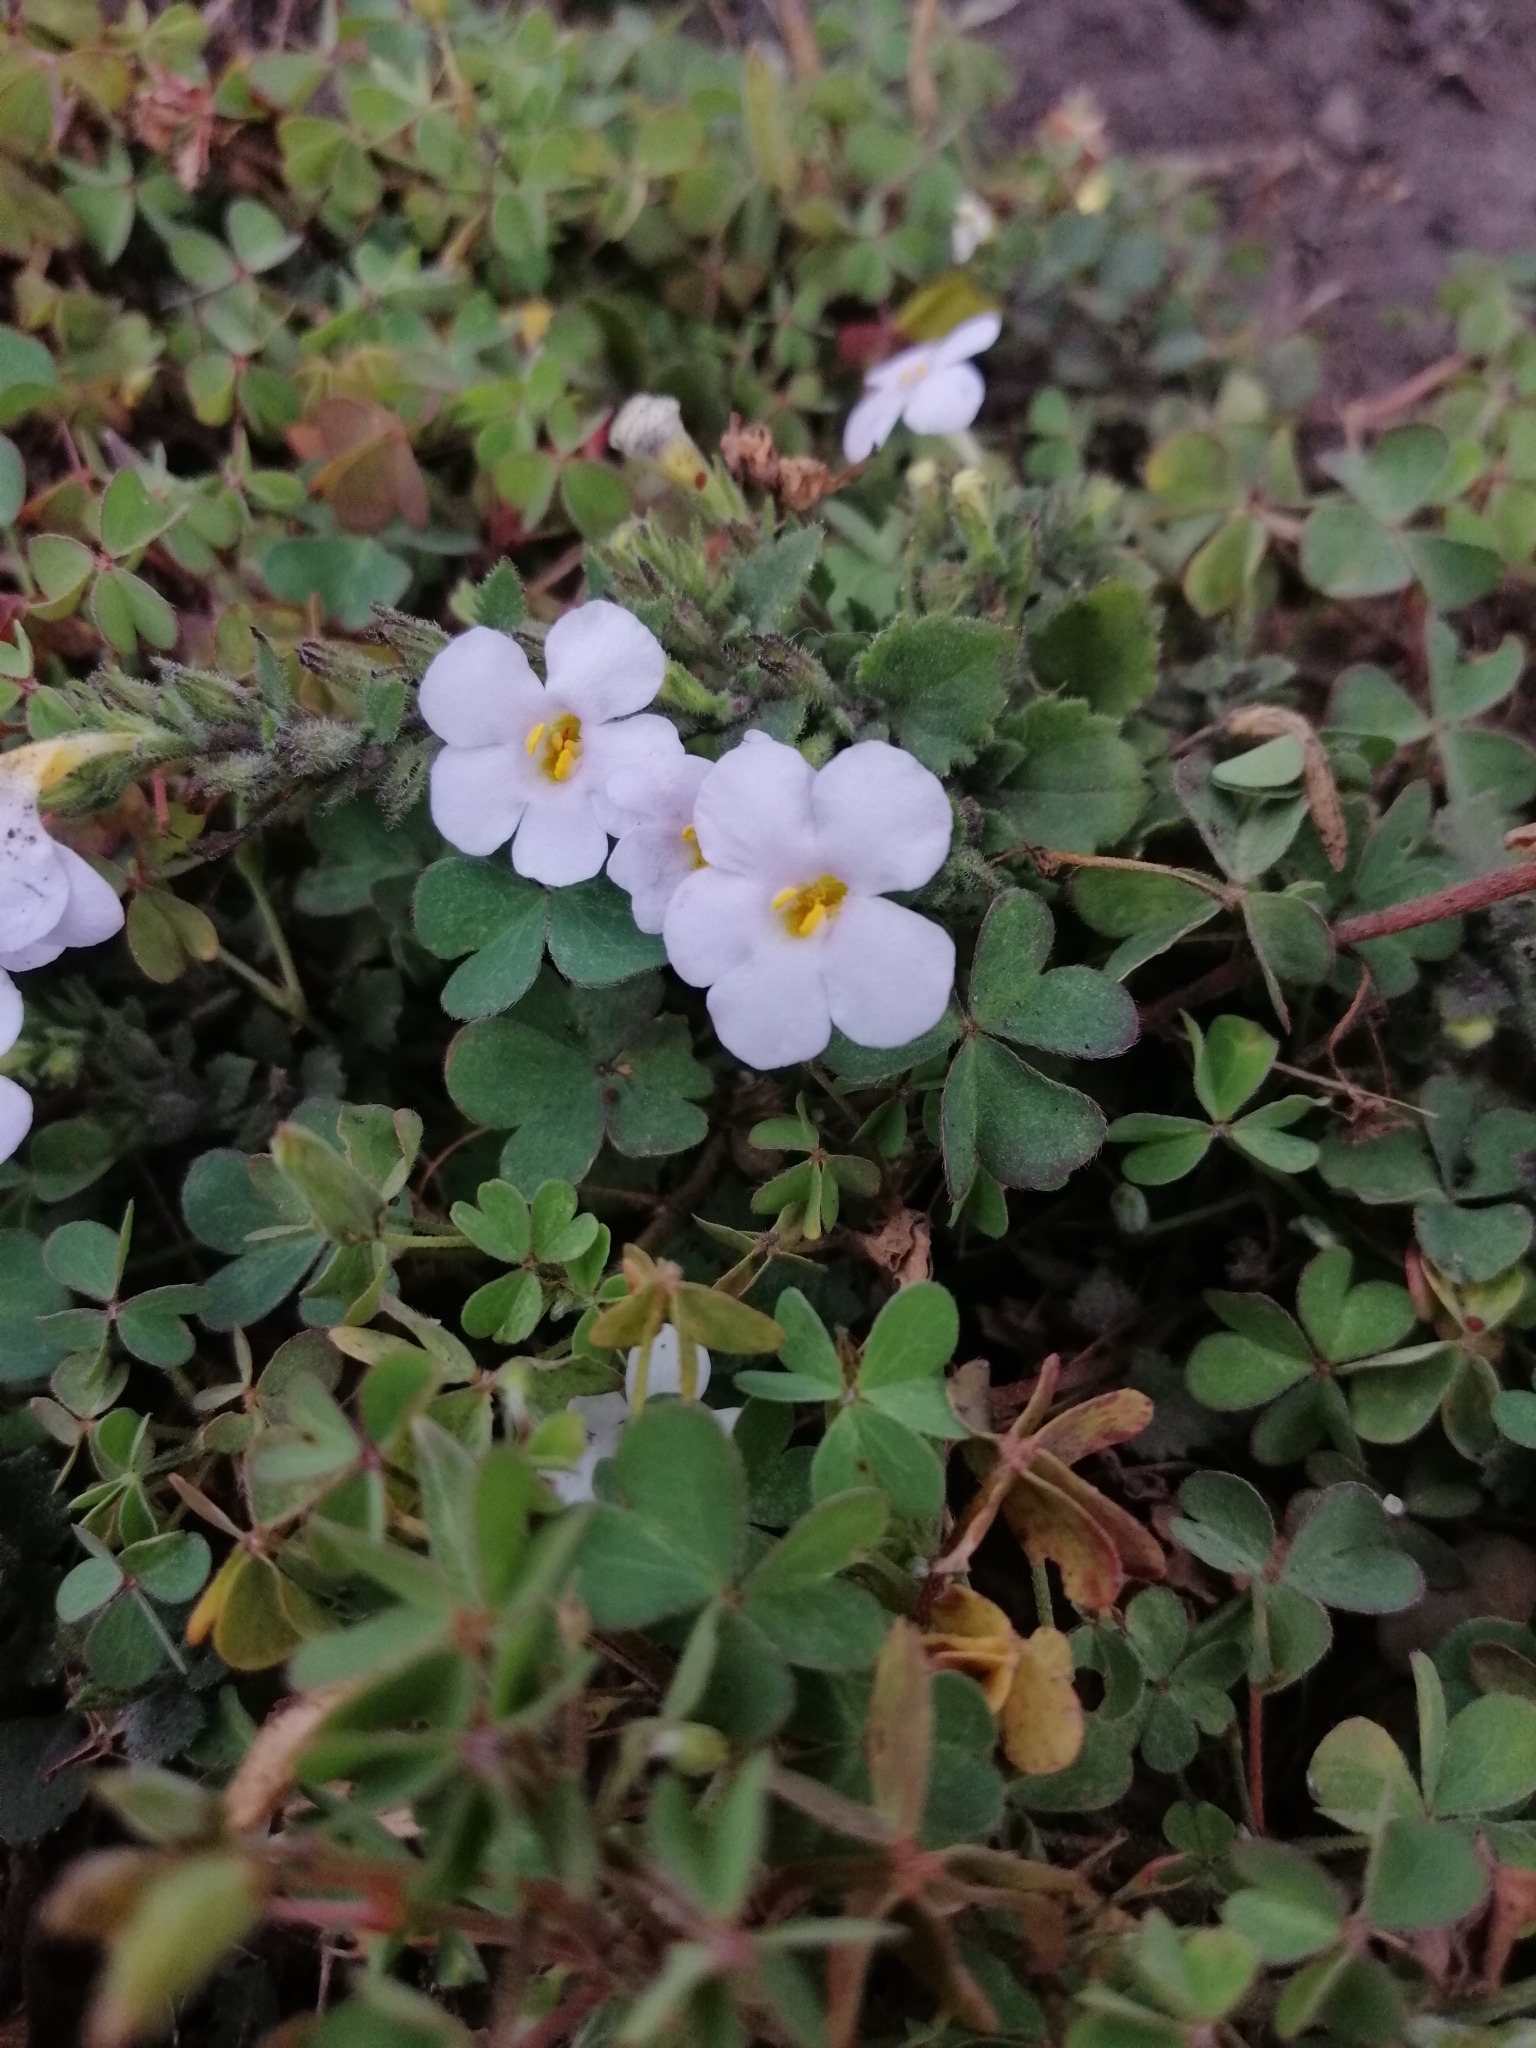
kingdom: Plantae
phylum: Tracheophyta
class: Magnoliopsida
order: Oxalidales
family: Oxalidaceae
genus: Oxalis
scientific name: Oxalis corniculata
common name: Procumbent yellow-sorrel
